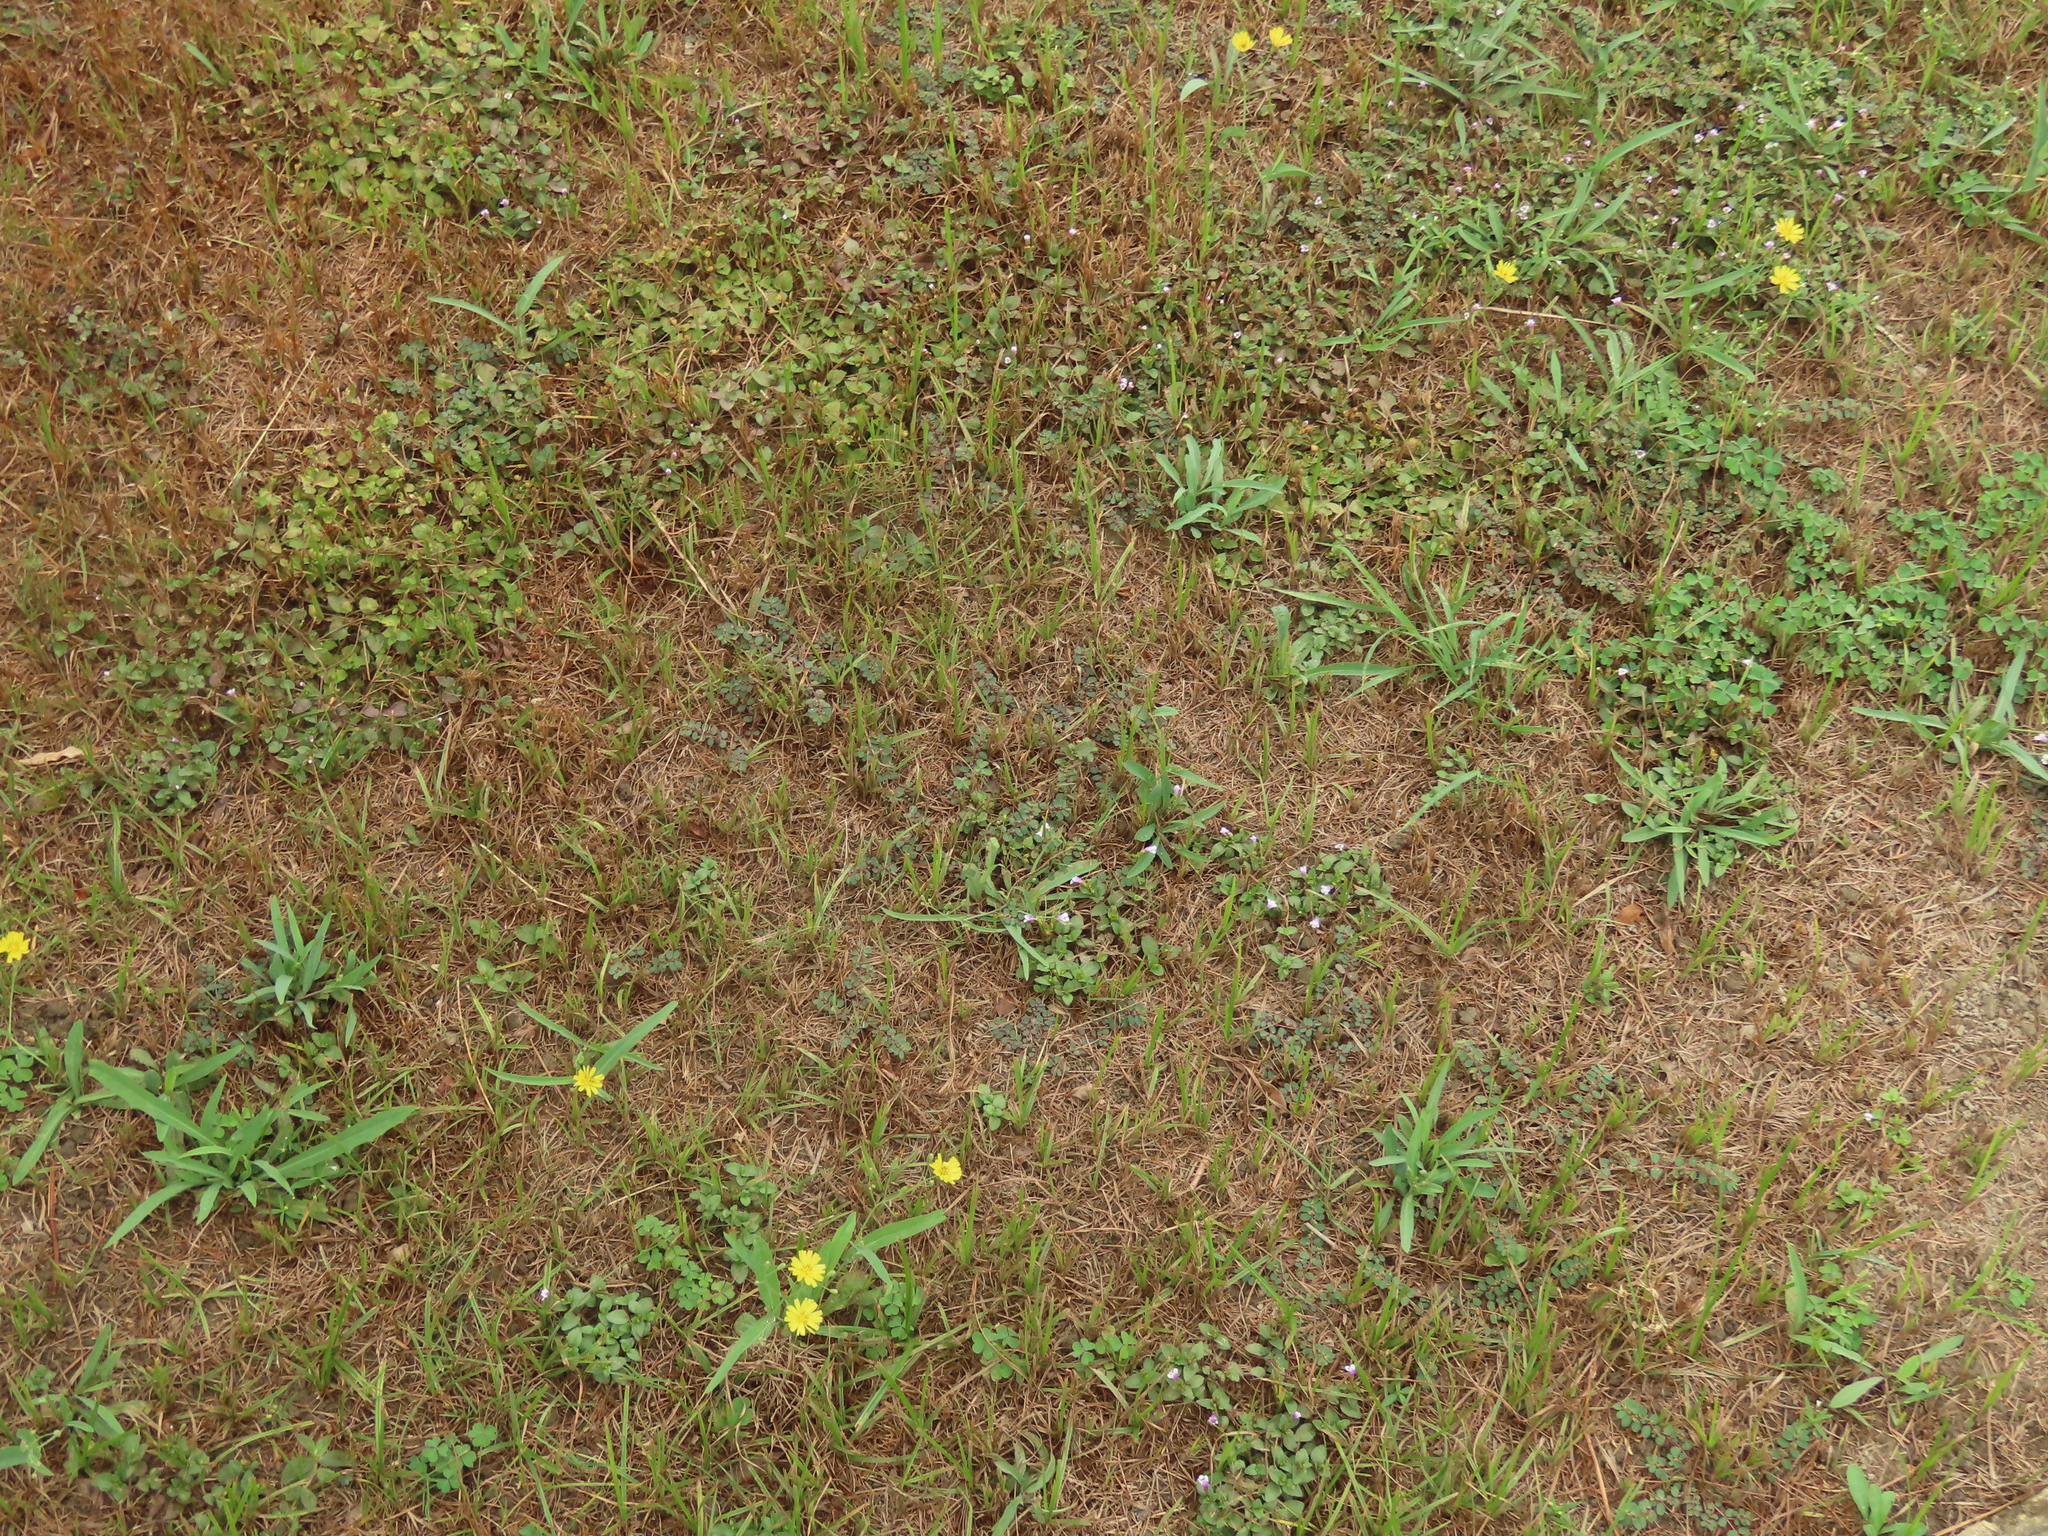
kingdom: Plantae
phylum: Tracheophyta
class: Magnoliopsida
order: Lamiales
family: Linderniaceae
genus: Torenia
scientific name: Torenia crustacea
